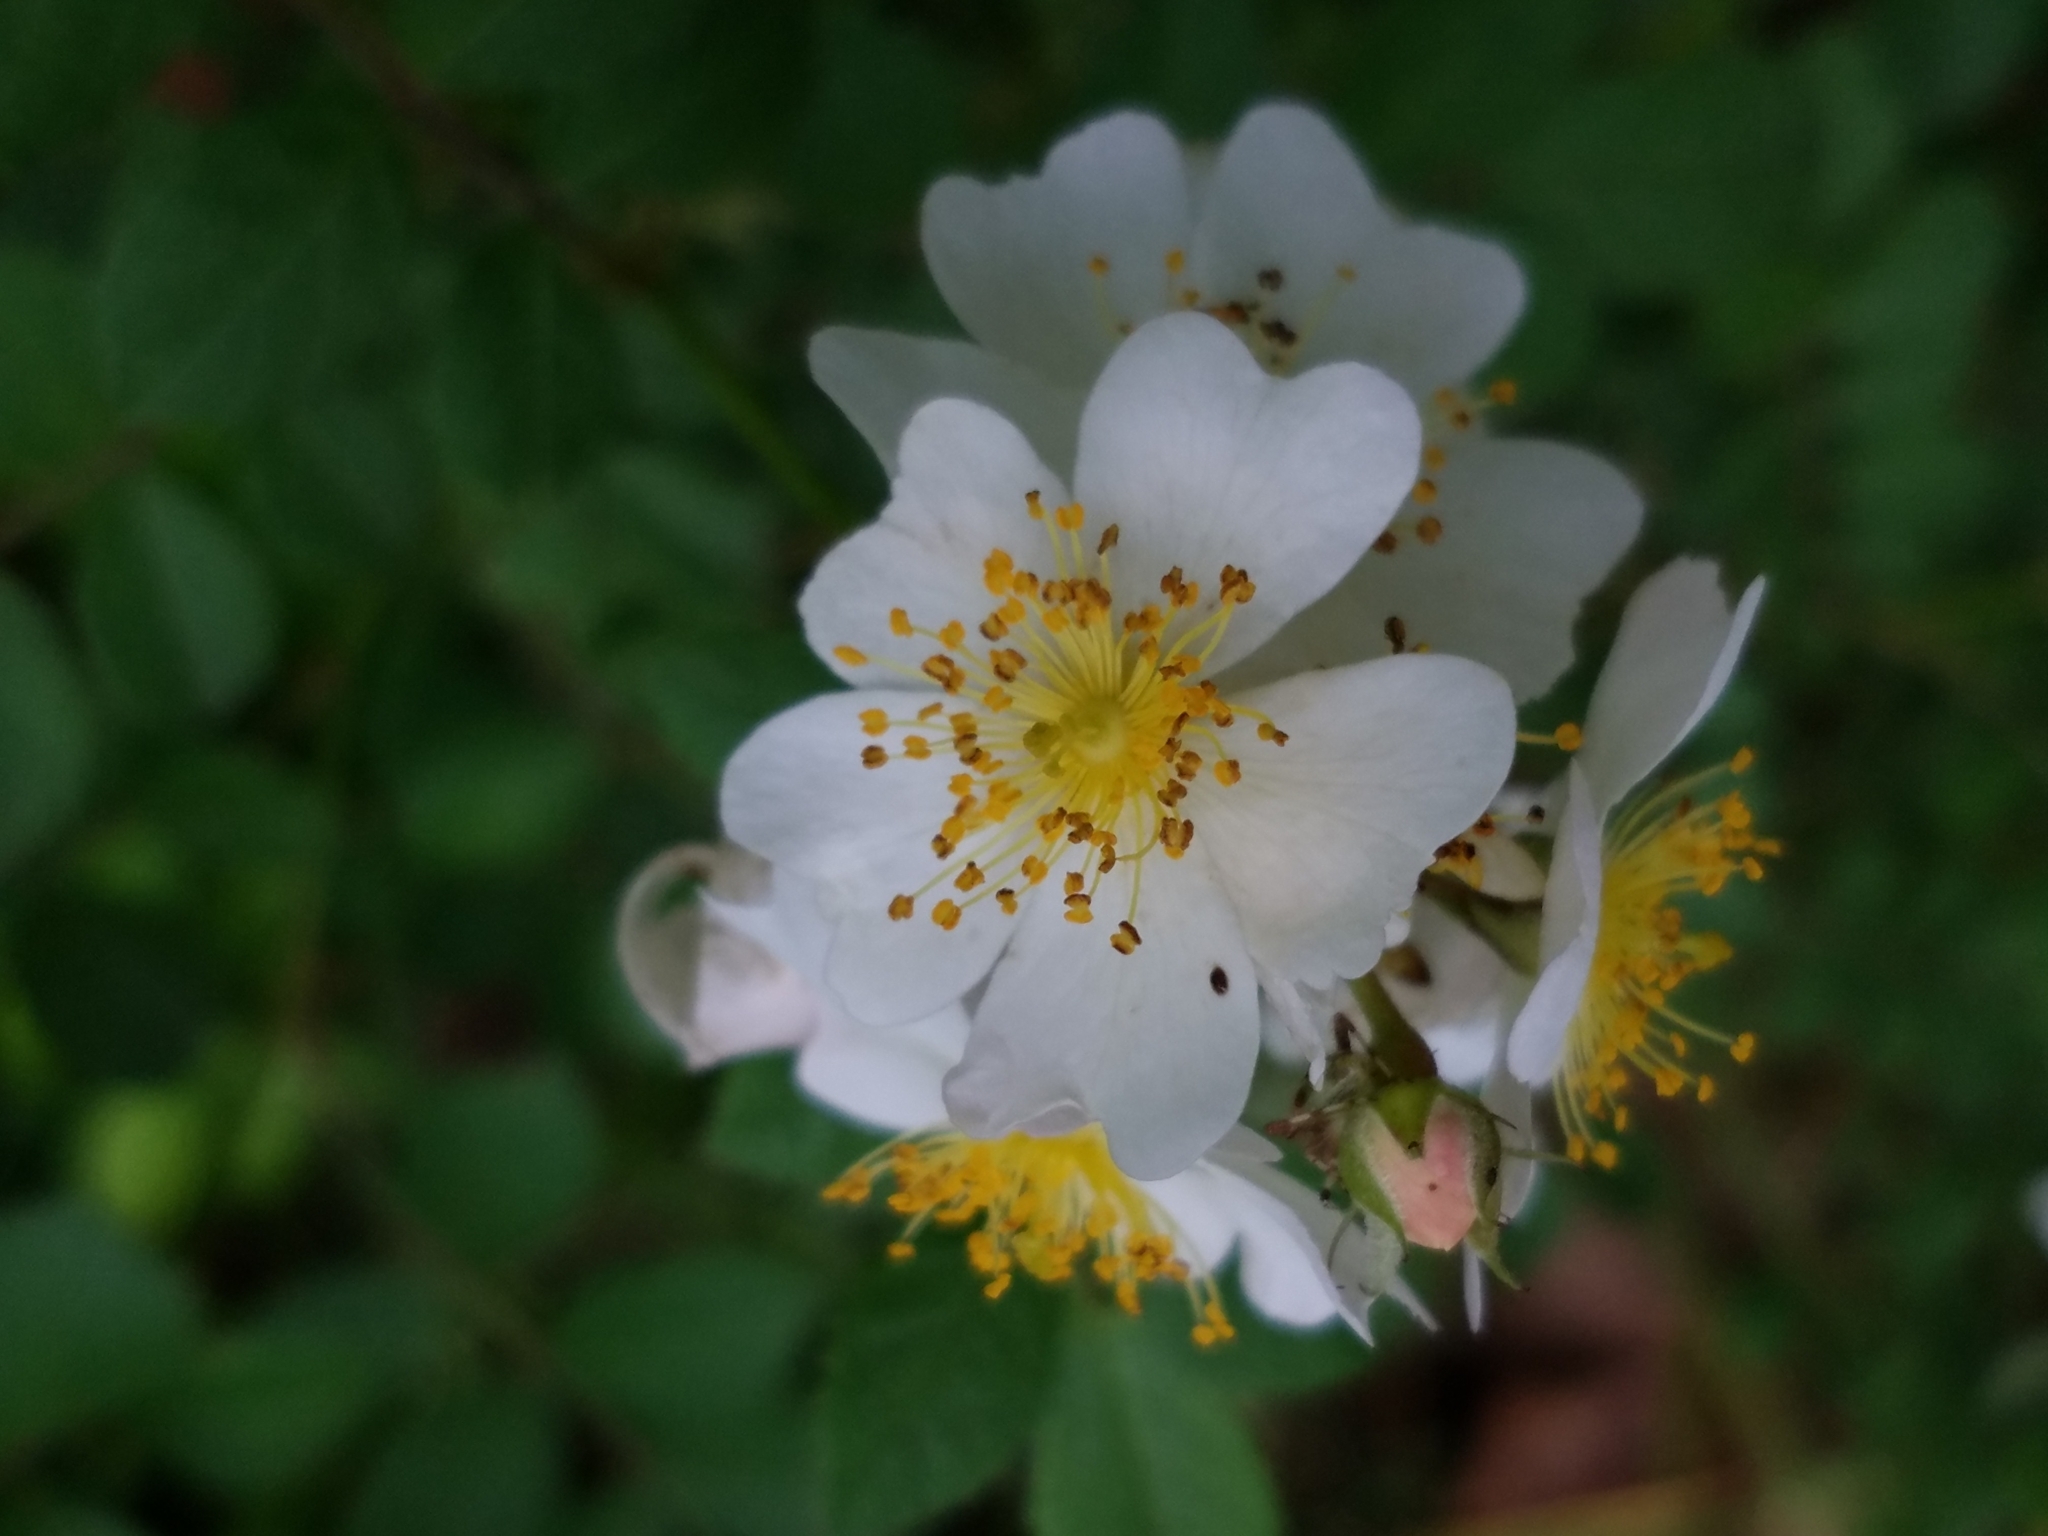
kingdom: Plantae
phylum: Tracheophyta
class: Magnoliopsida
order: Rosales
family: Rosaceae
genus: Rosa
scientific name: Rosa multiflora
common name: Multiflora rose
